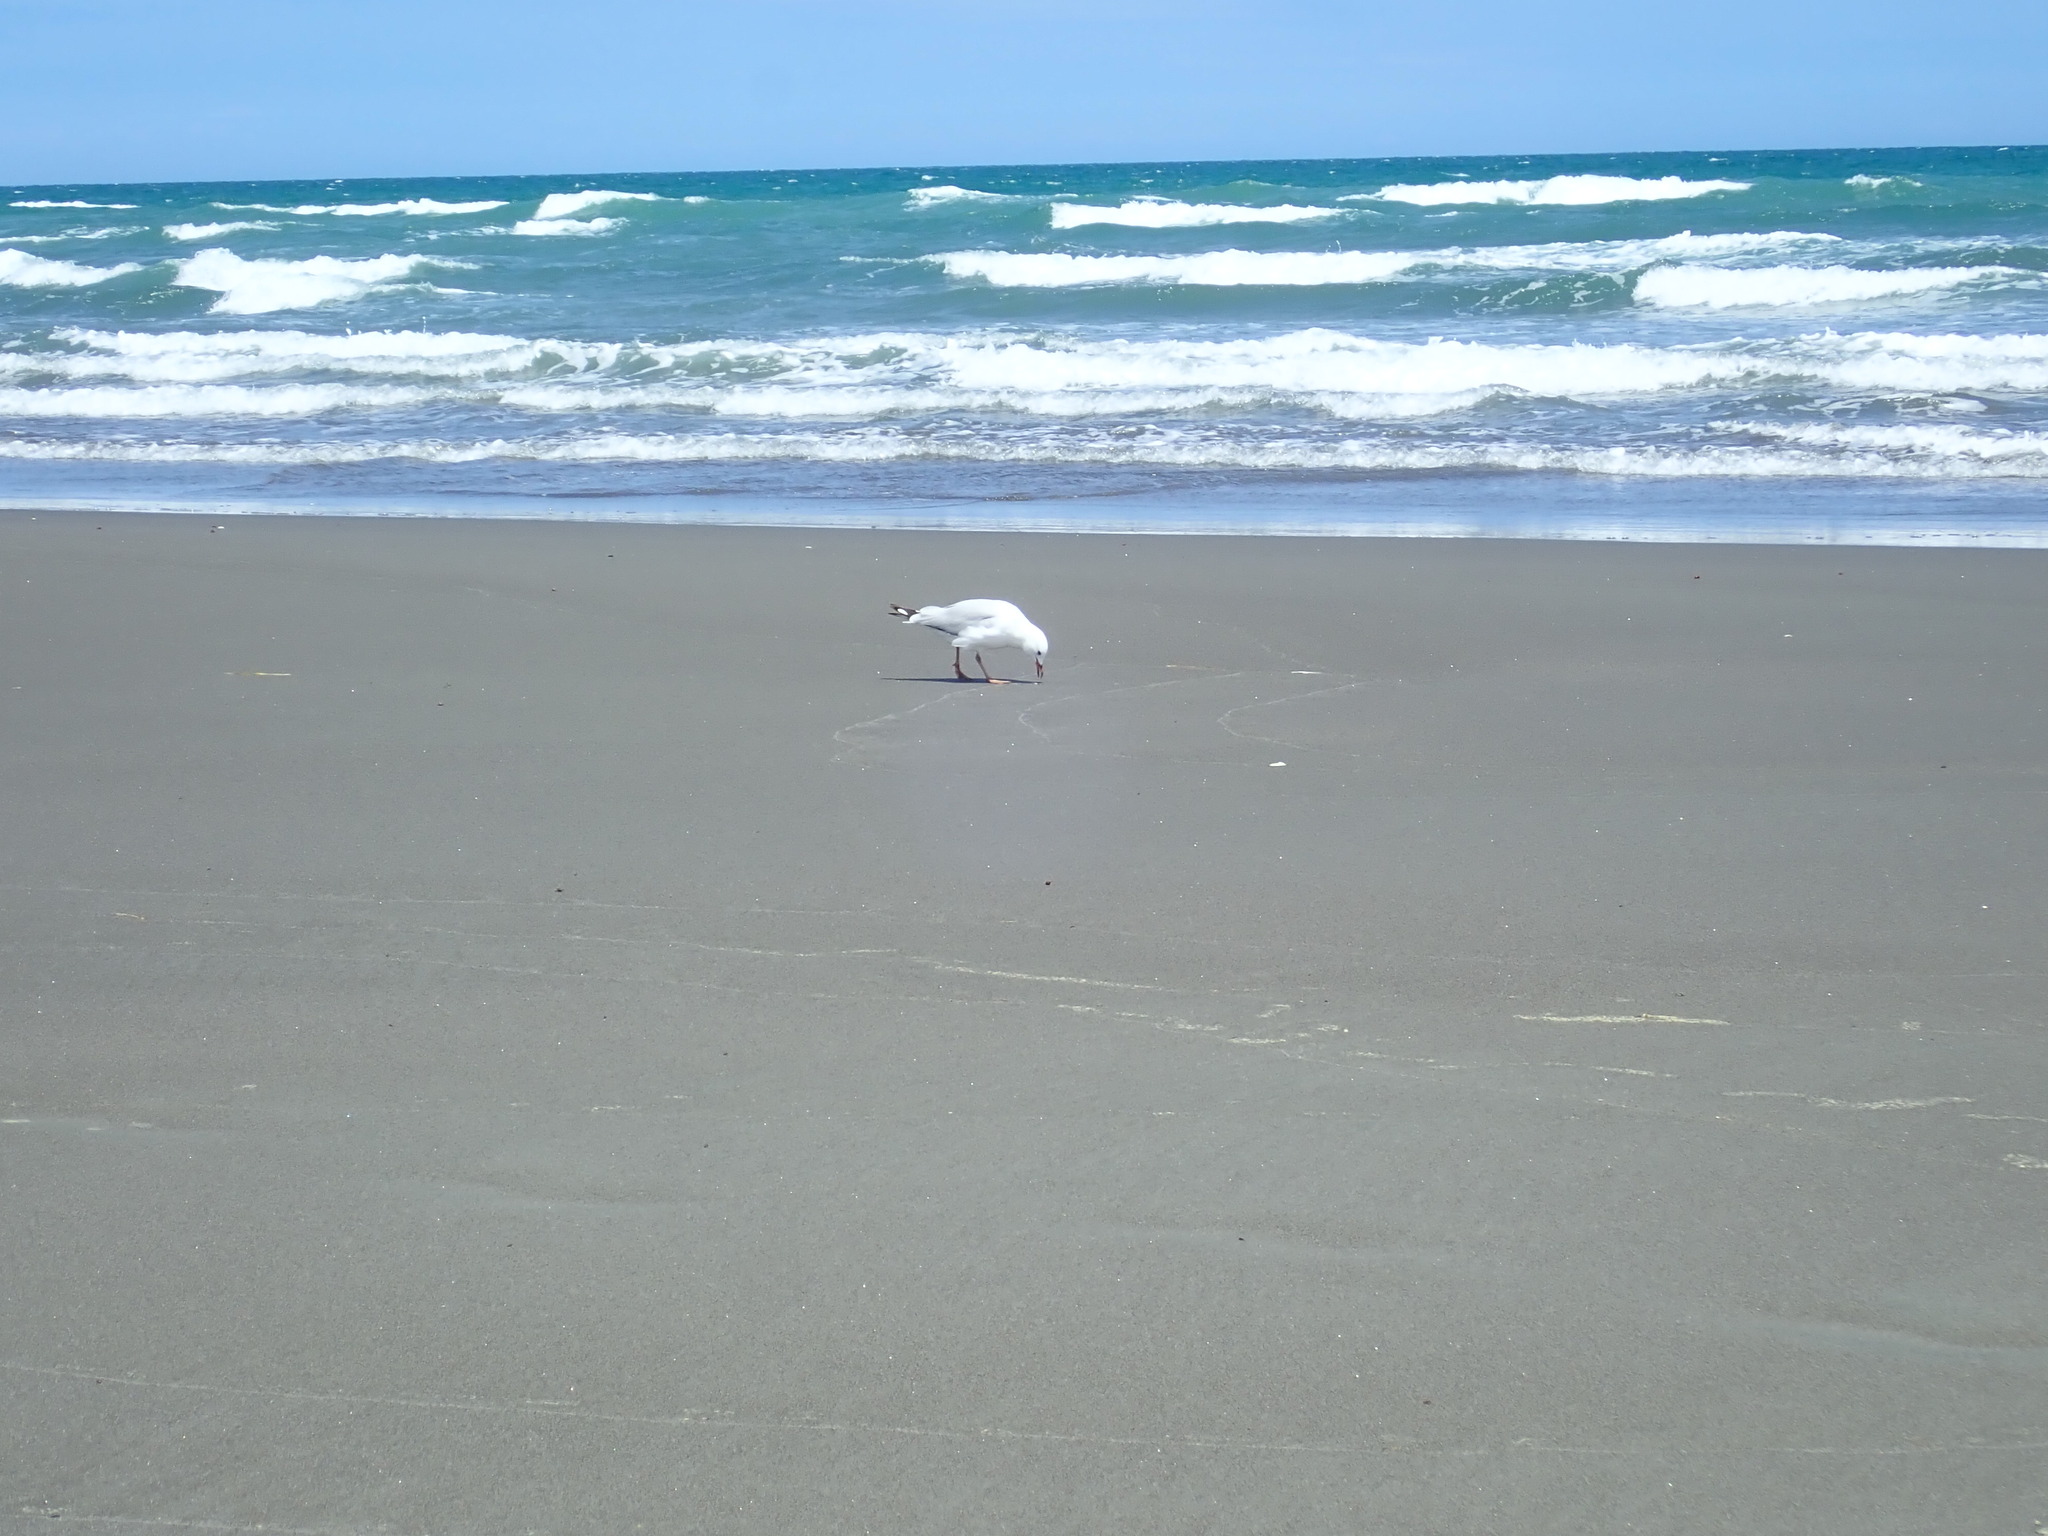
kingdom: Animalia
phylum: Chordata
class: Aves
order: Charadriiformes
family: Laridae
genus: Chroicocephalus
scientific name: Chroicocephalus novaehollandiae
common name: Silver gull
